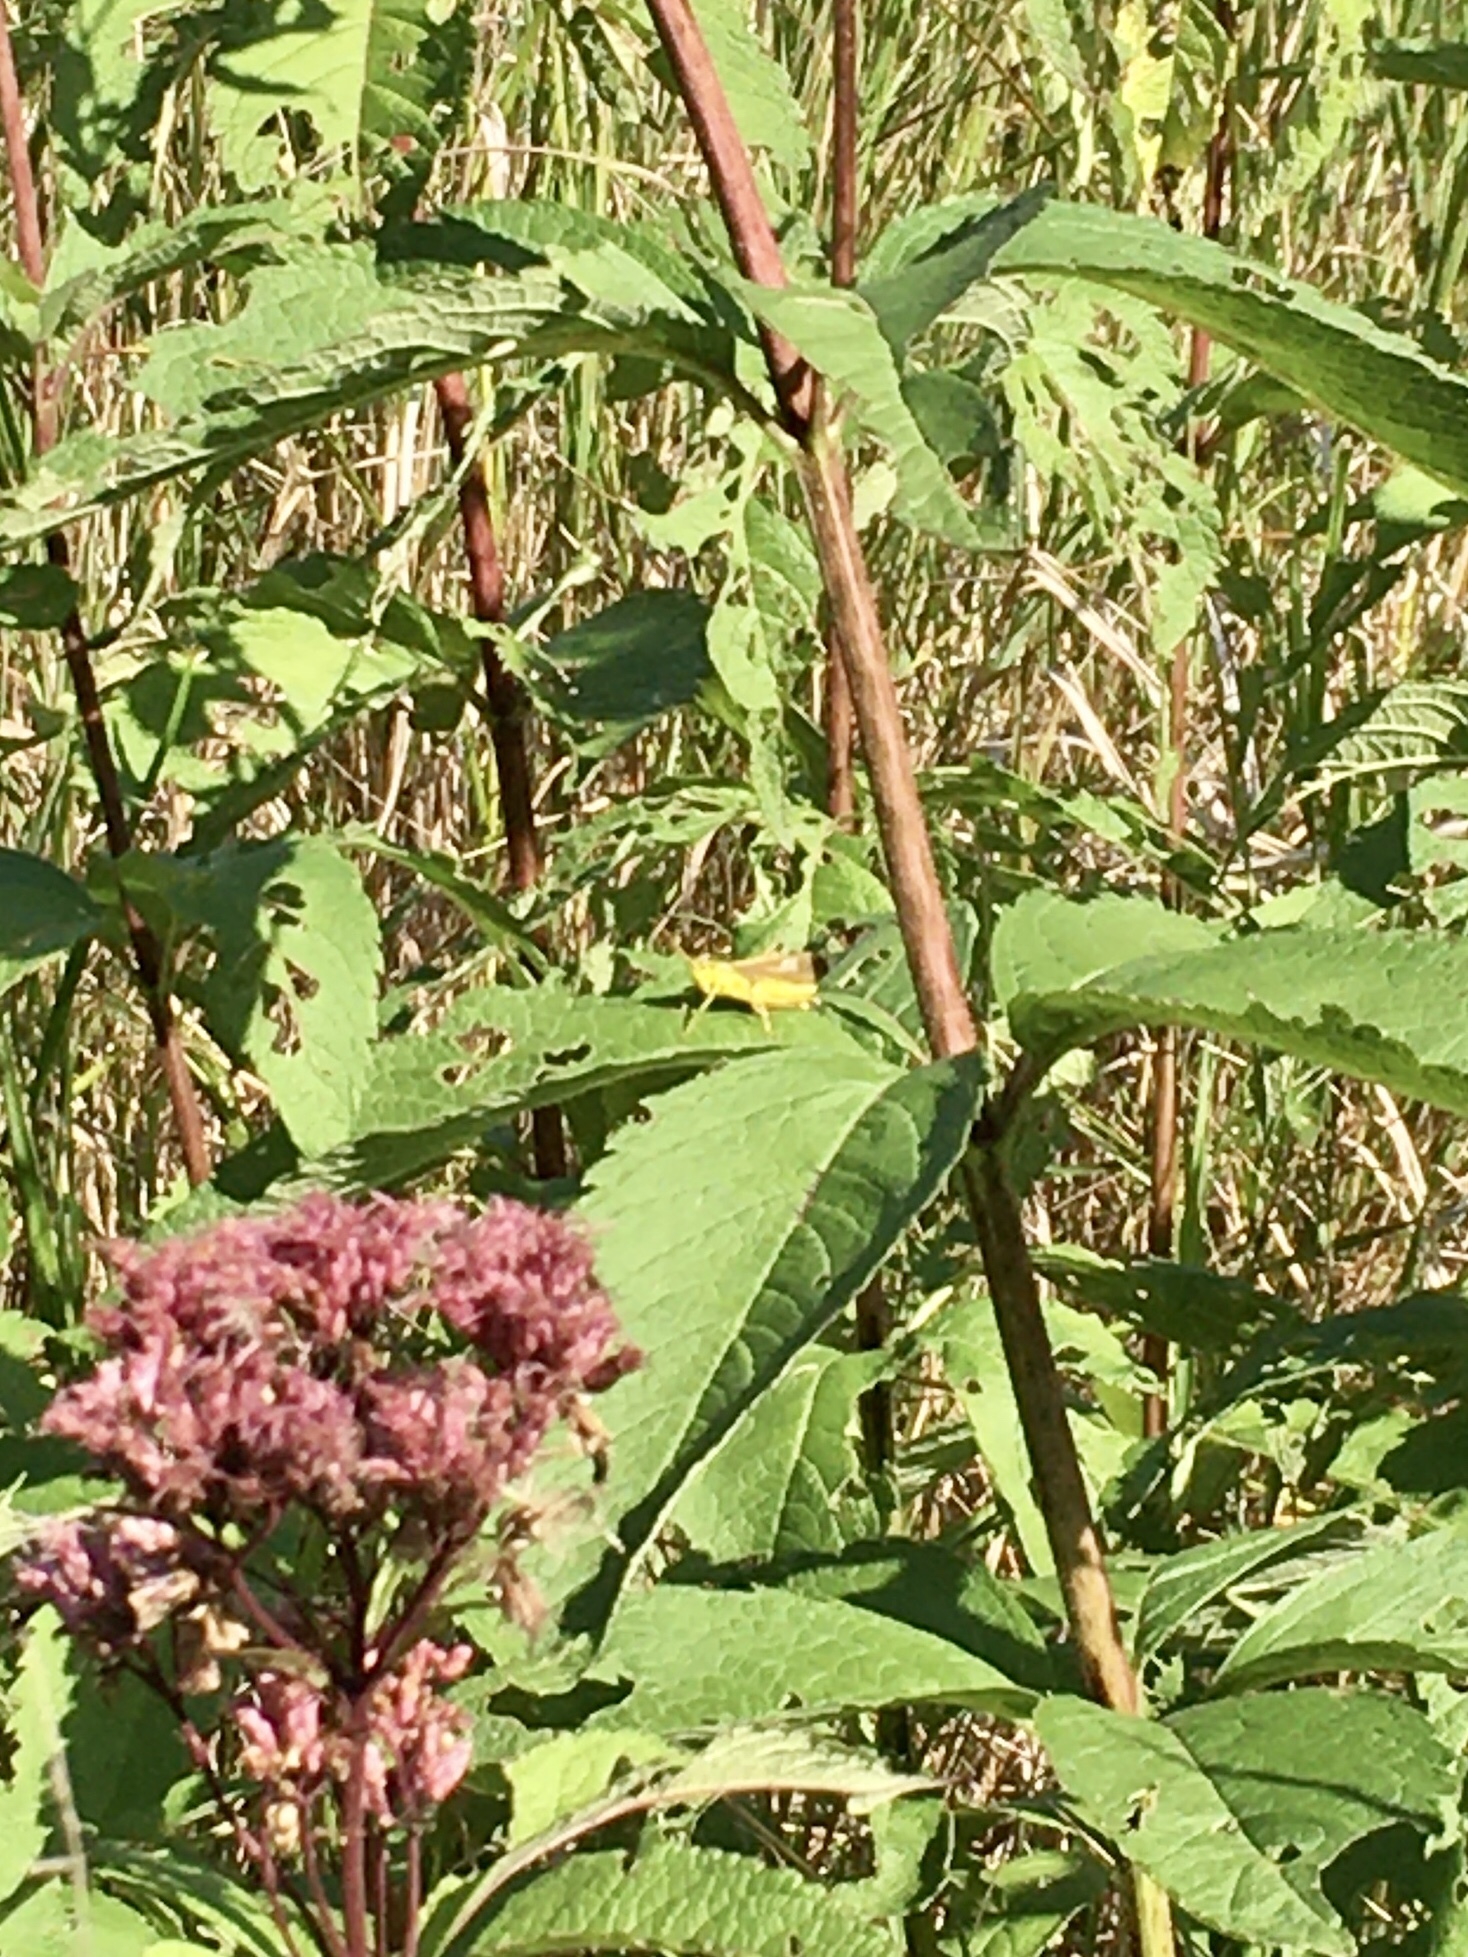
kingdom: Animalia
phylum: Arthropoda
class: Insecta
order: Orthoptera
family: Acrididae
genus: Stethophyma
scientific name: Stethophyma gracile
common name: Graceful sedge grasshopper
